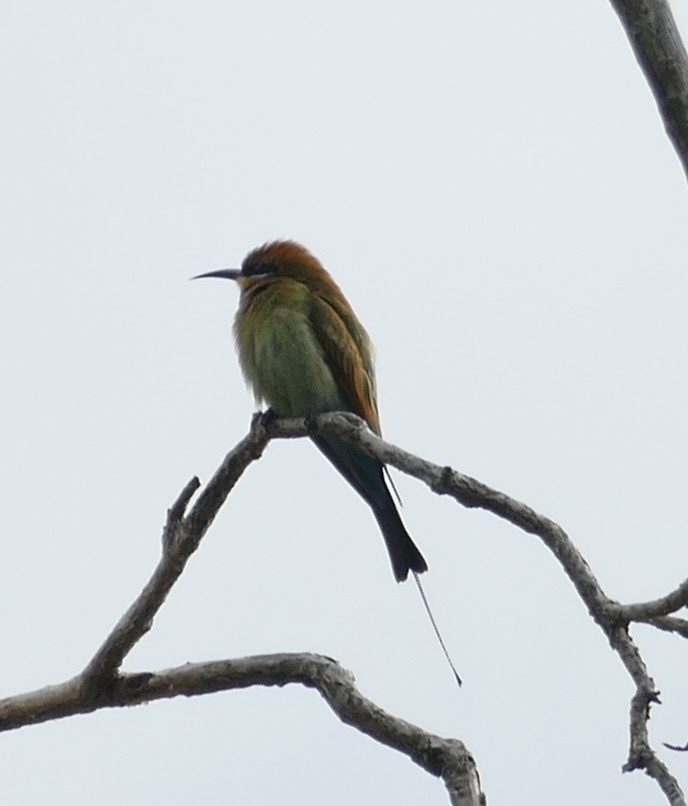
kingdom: Animalia
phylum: Chordata
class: Aves
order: Coraciiformes
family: Meropidae
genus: Merops
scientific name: Merops ornatus
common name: Rainbow bee-eater
